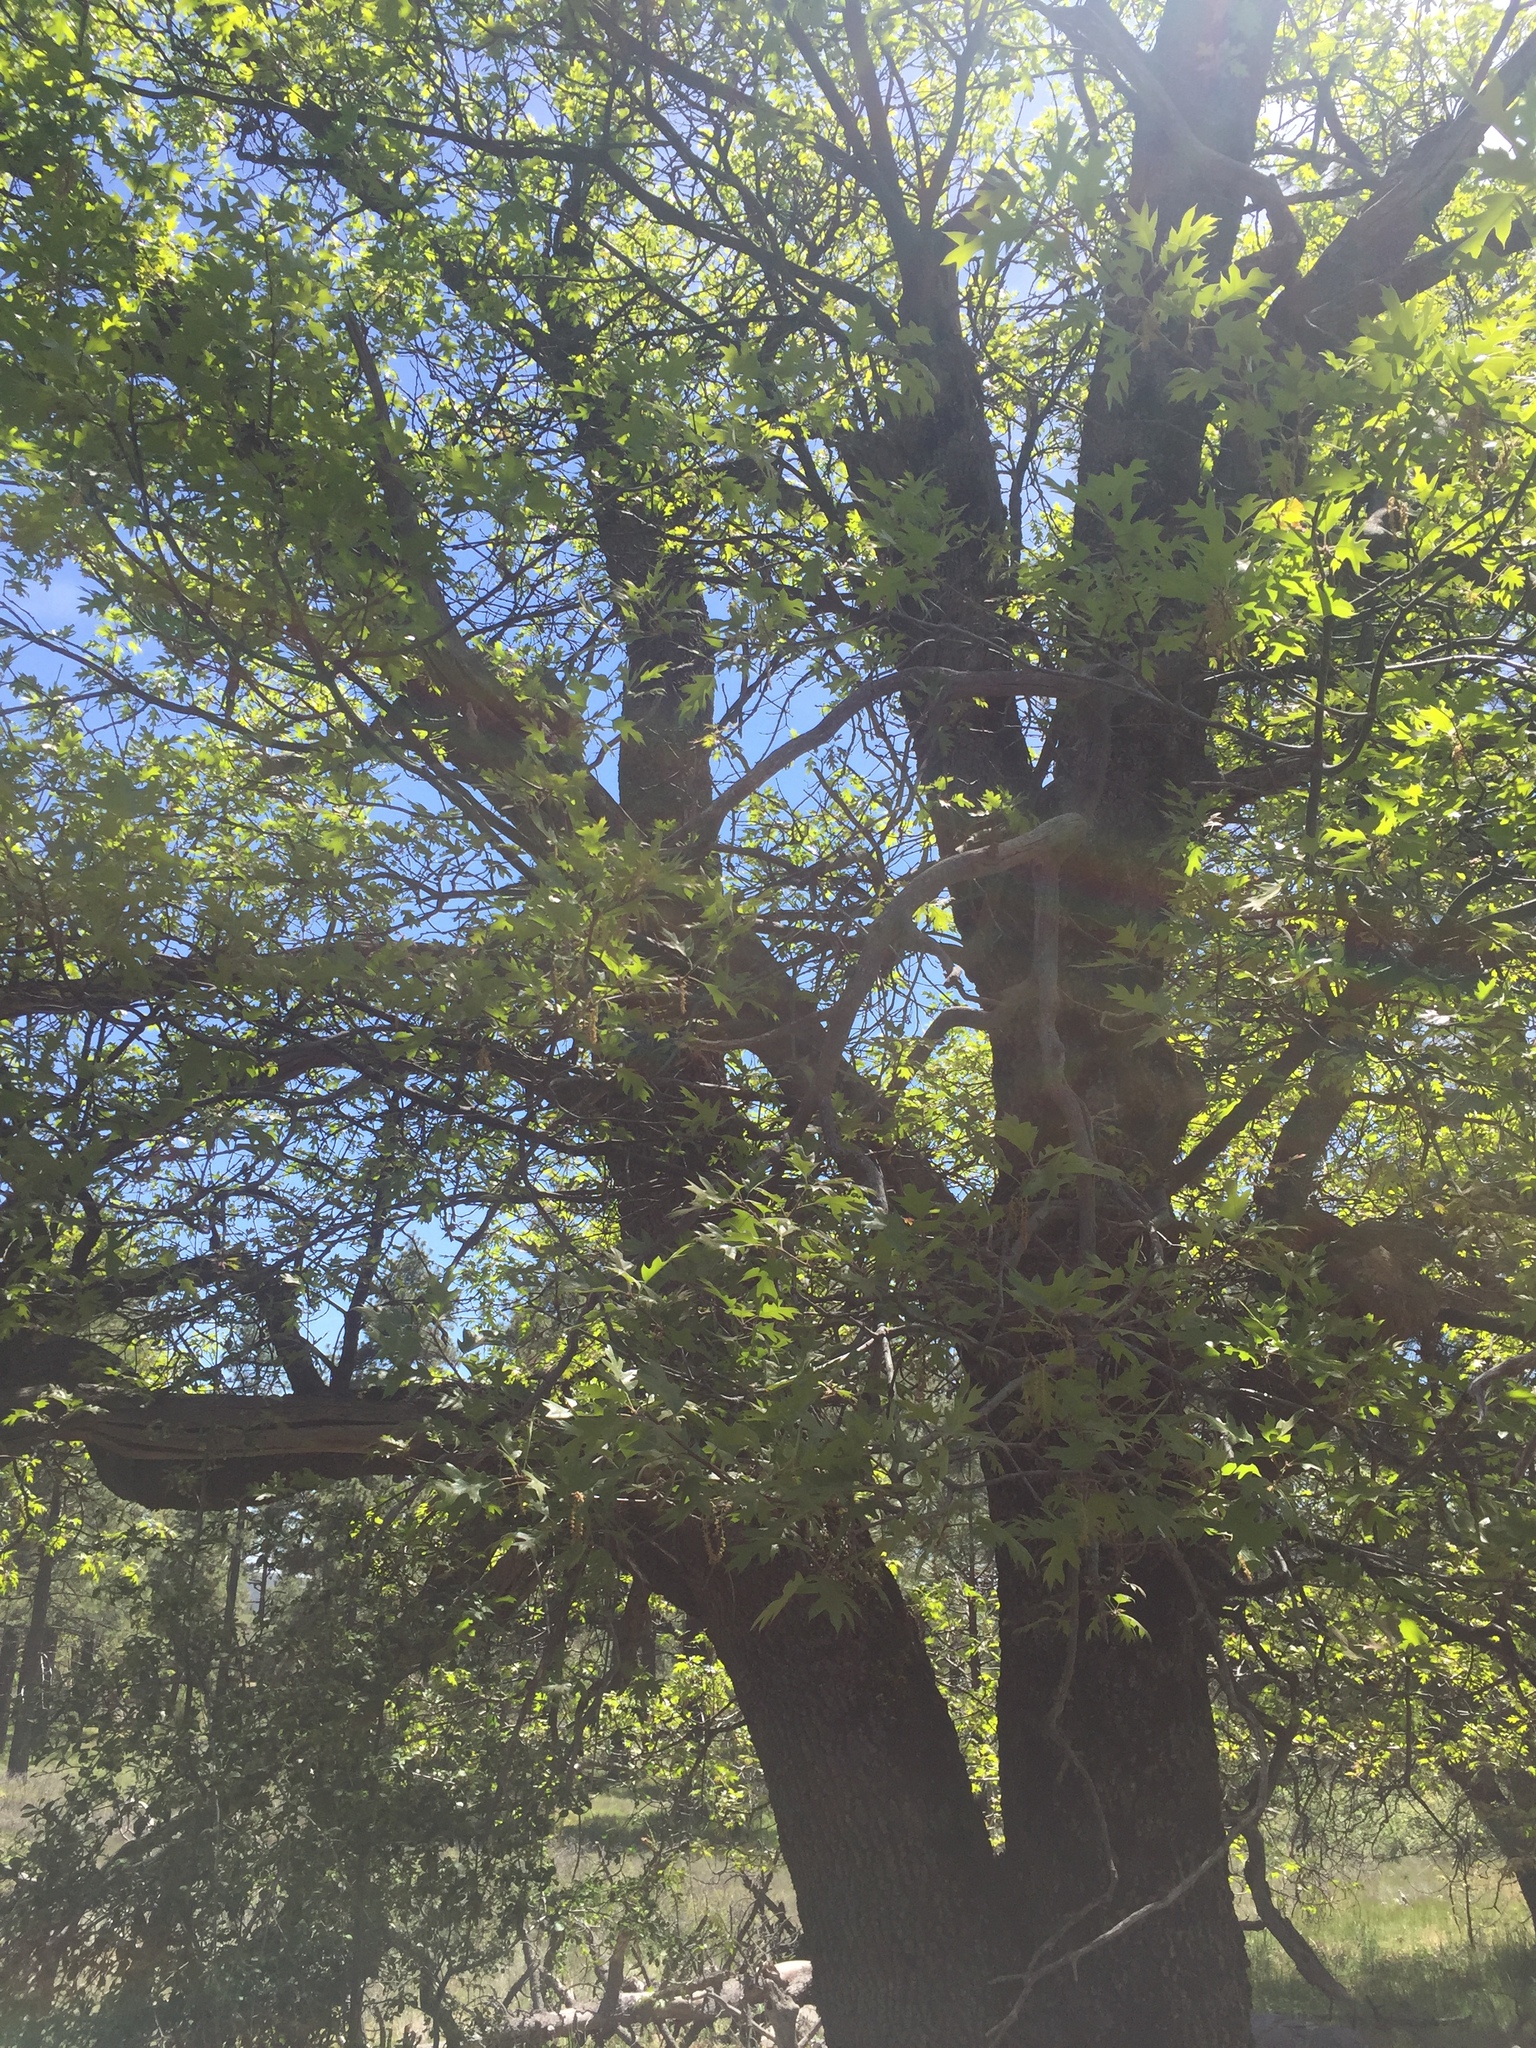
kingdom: Plantae
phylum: Tracheophyta
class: Magnoliopsida
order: Fagales
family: Fagaceae
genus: Quercus
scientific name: Quercus kelloggii
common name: California black oak
